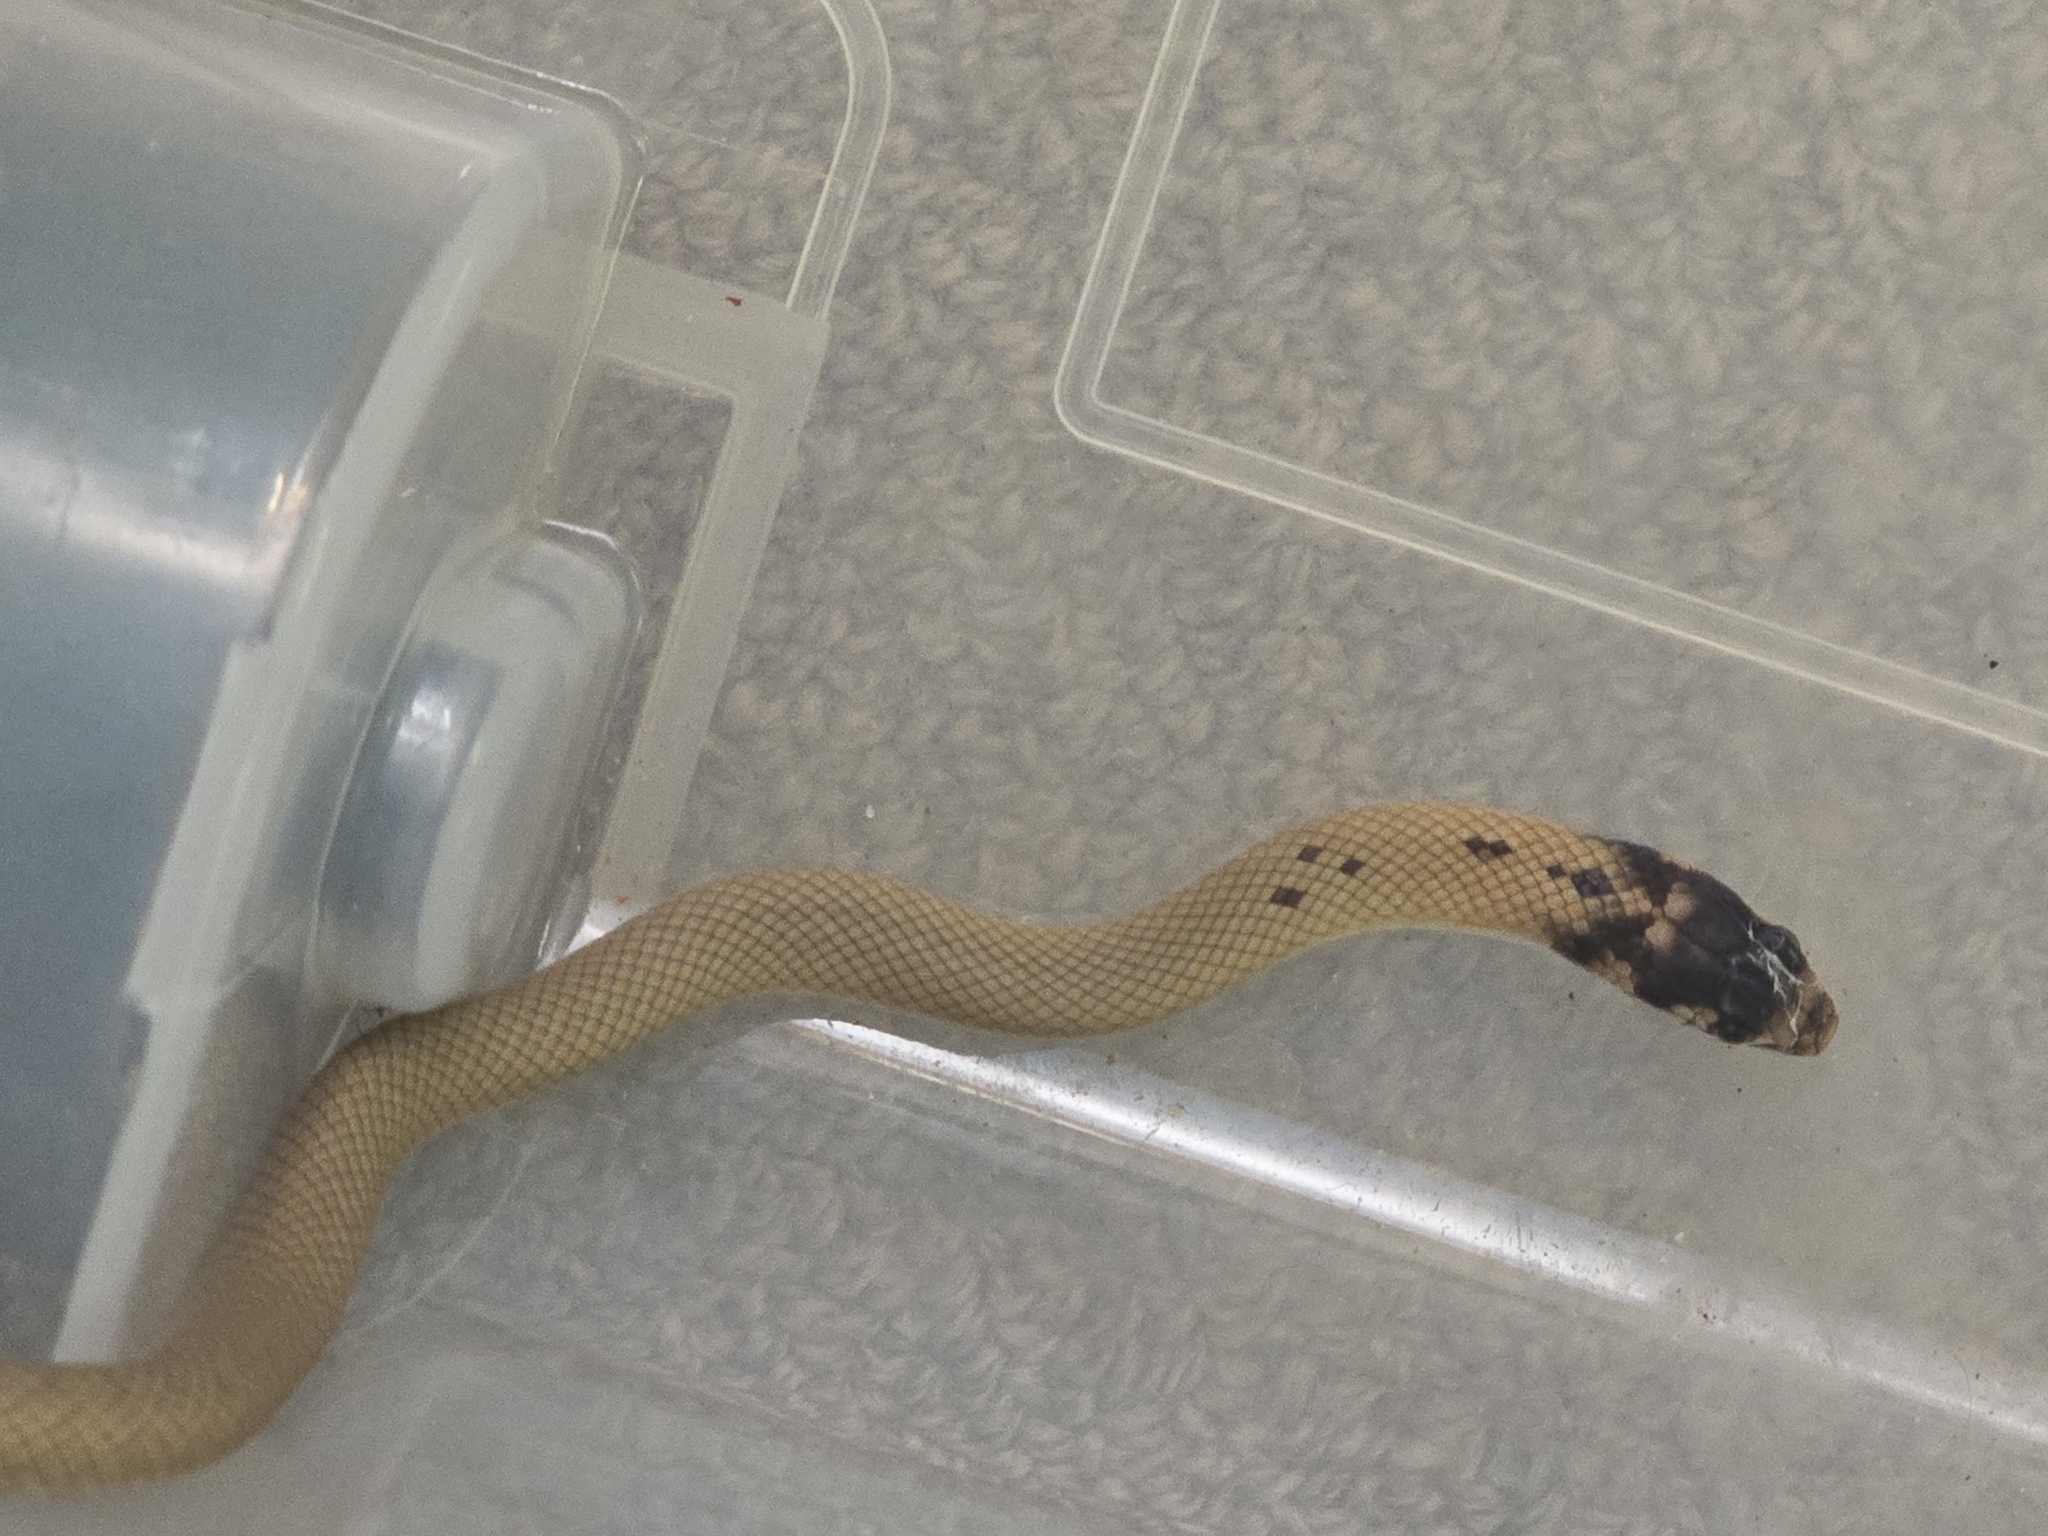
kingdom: Animalia
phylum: Chordata
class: Squamata
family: Elapidae
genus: Pseudonaja
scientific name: Pseudonaja aspidorhyncha
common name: Strap-snouted brown snake
